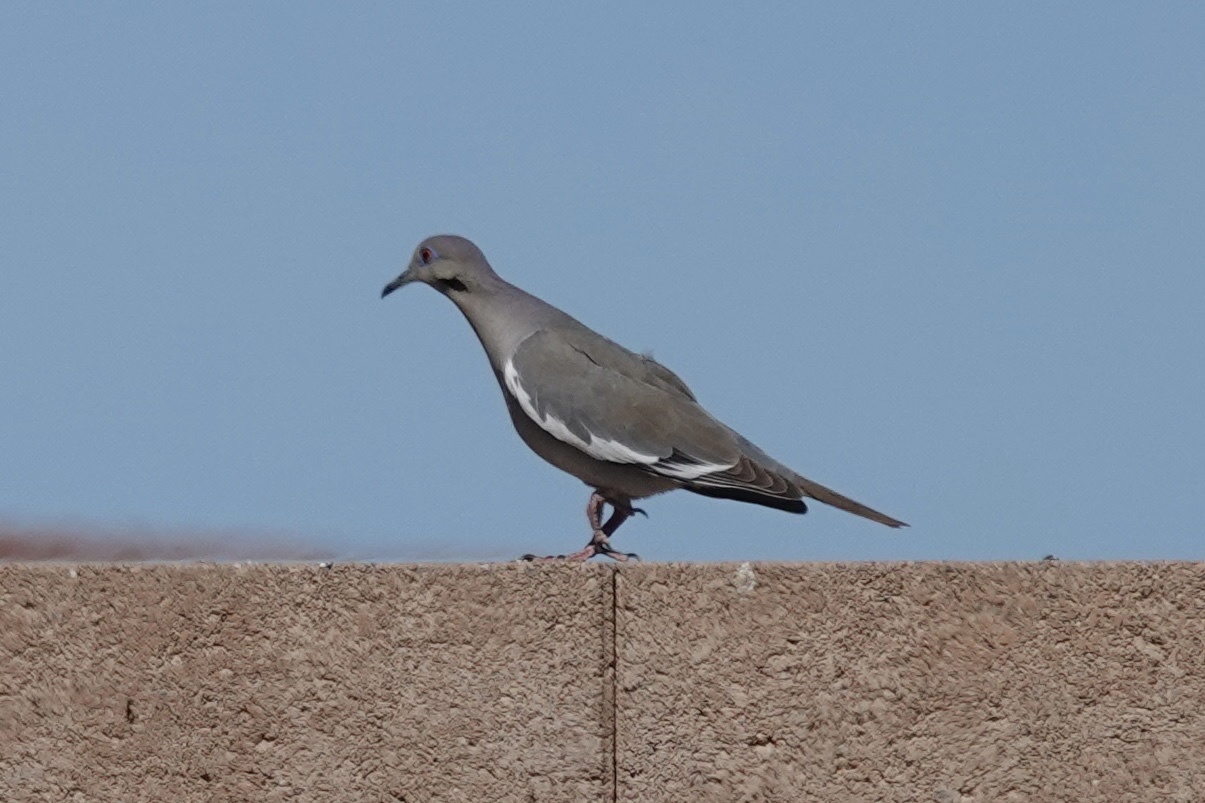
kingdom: Animalia
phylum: Chordata
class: Aves
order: Columbiformes
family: Columbidae
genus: Zenaida
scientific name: Zenaida asiatica
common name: White-winged dove
